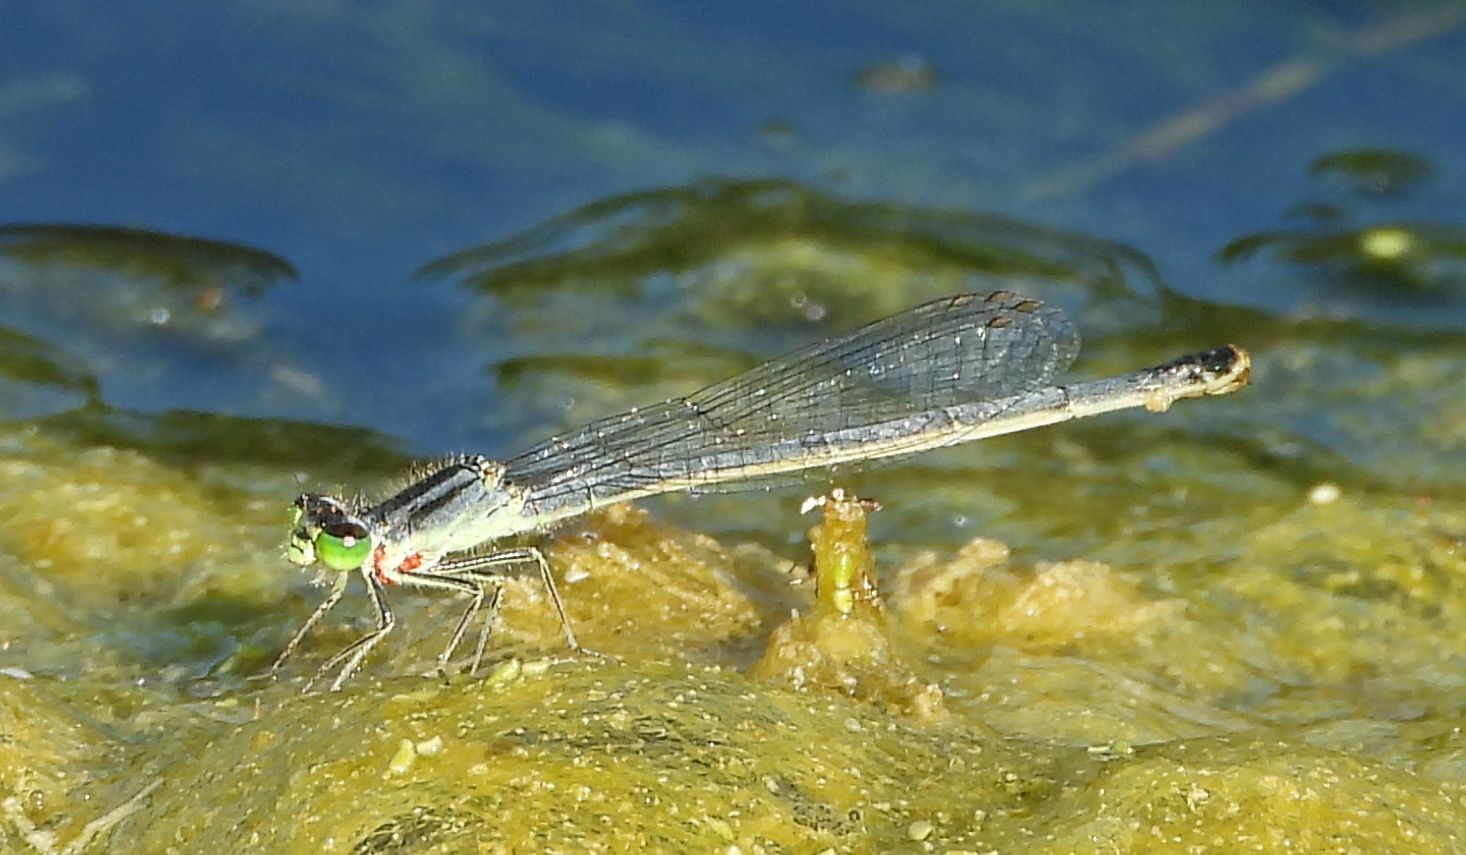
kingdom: Animalia
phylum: Arthropoda
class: Insecta
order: Odonata
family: Coenagrionidae
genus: Ischnura
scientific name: Ischnura verticalis
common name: Eastern forktail
